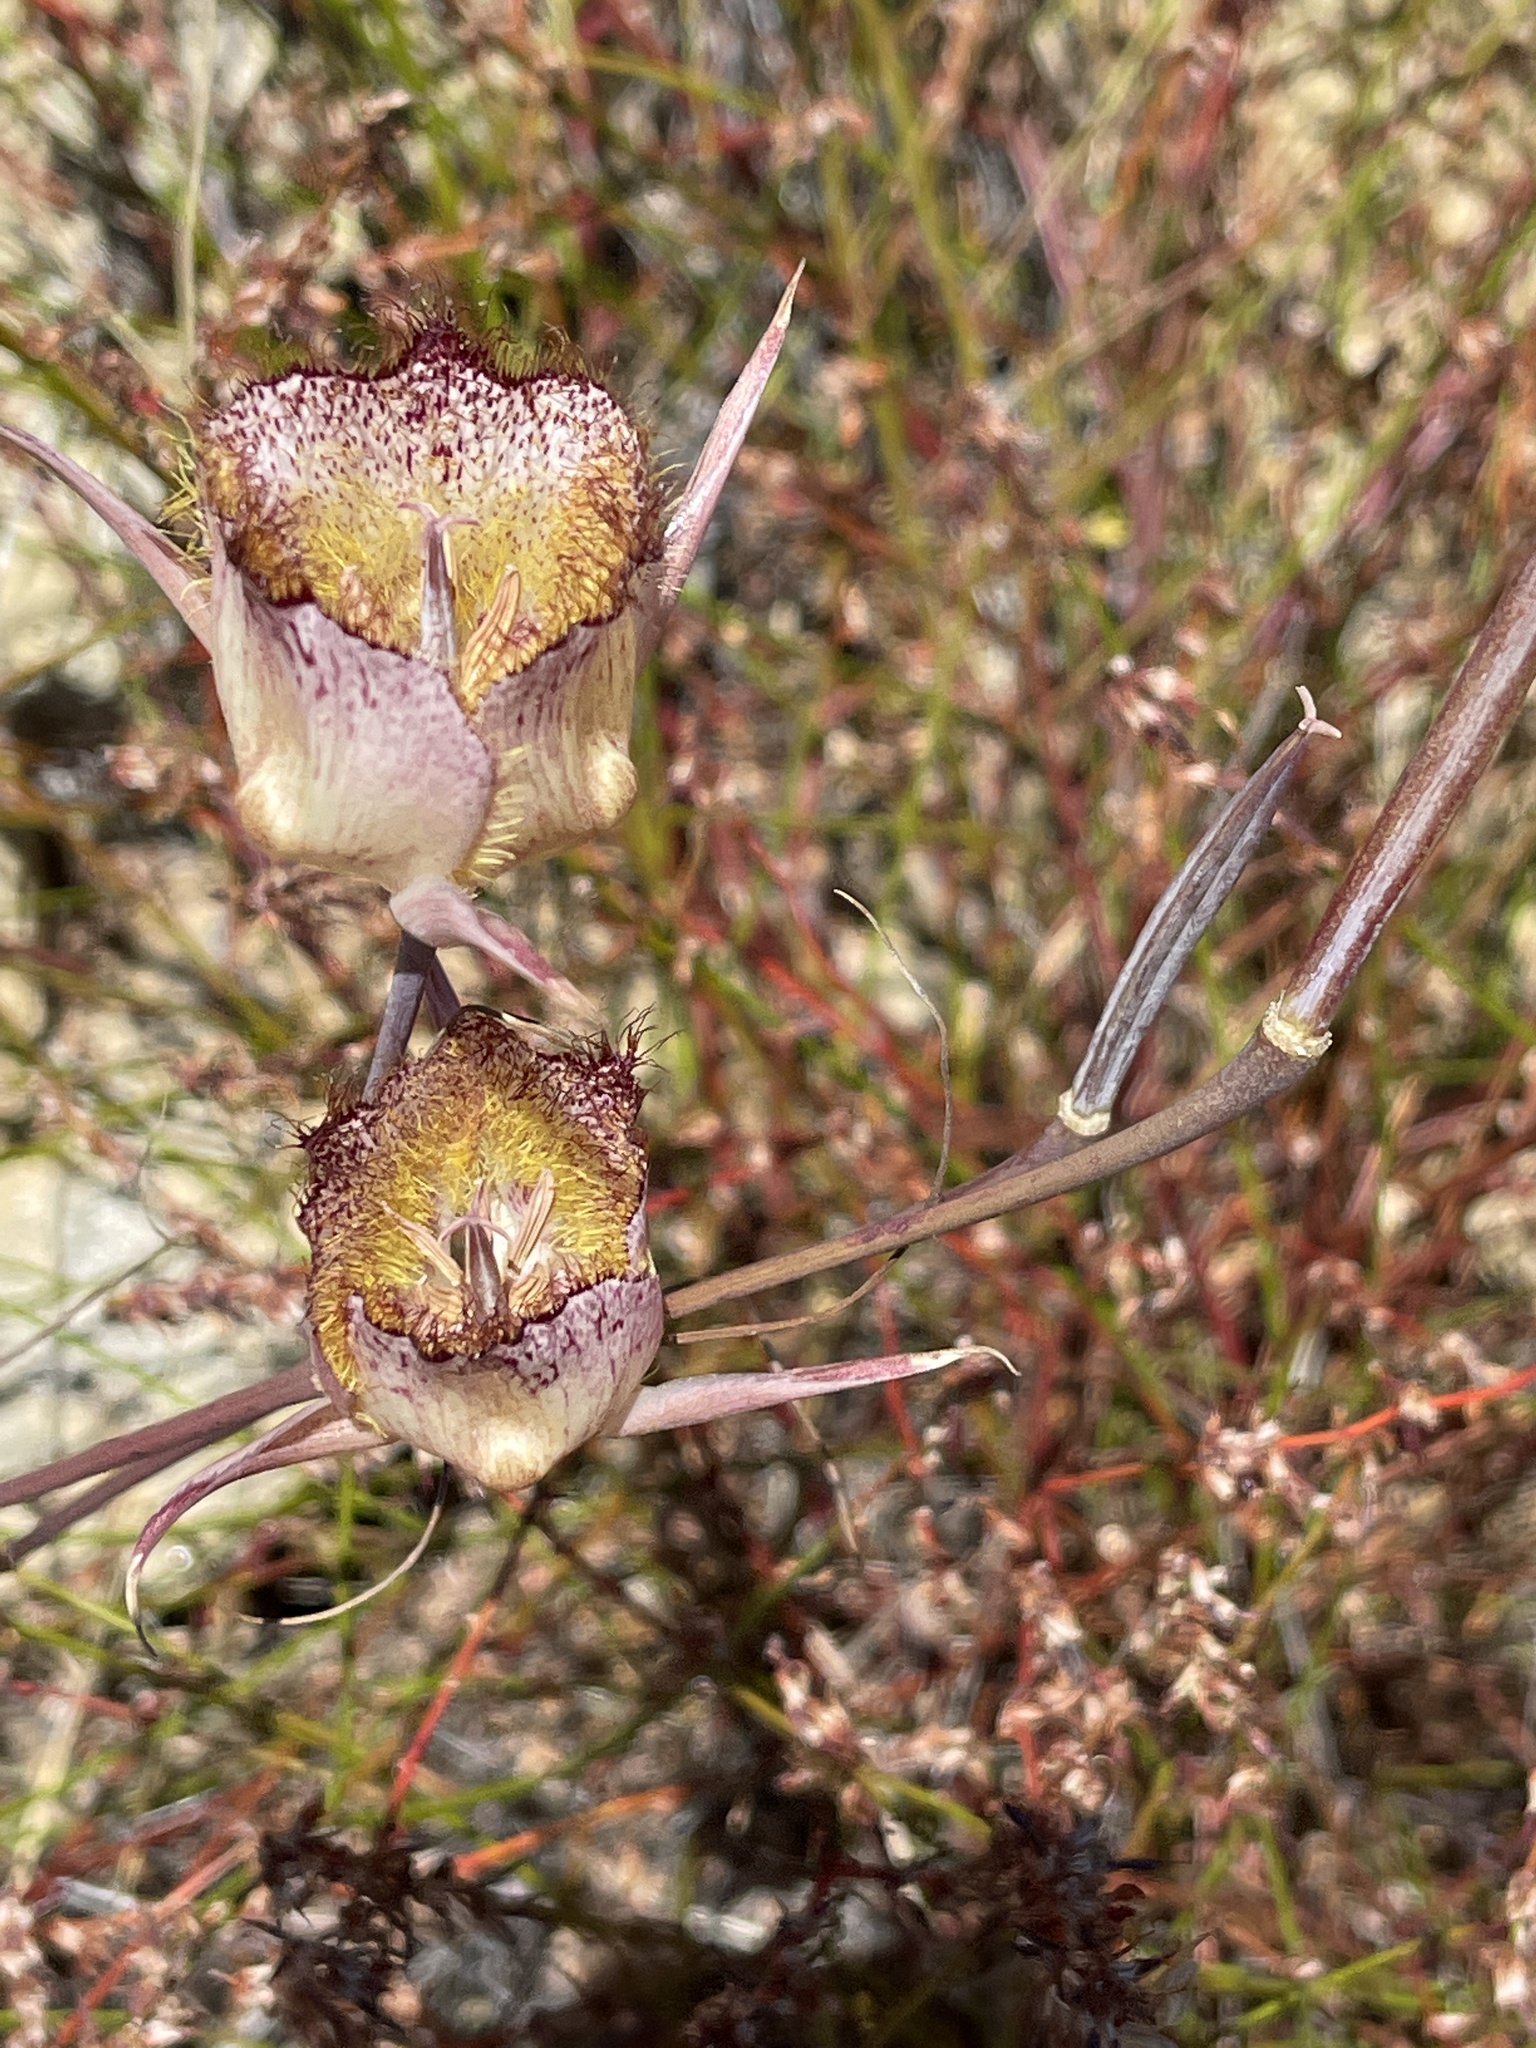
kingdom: Plantae
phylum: Tracheophyta
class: Liliopsida
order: Liliales
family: Liliaceae
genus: Calochortus
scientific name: Calochortus fimbriatus
